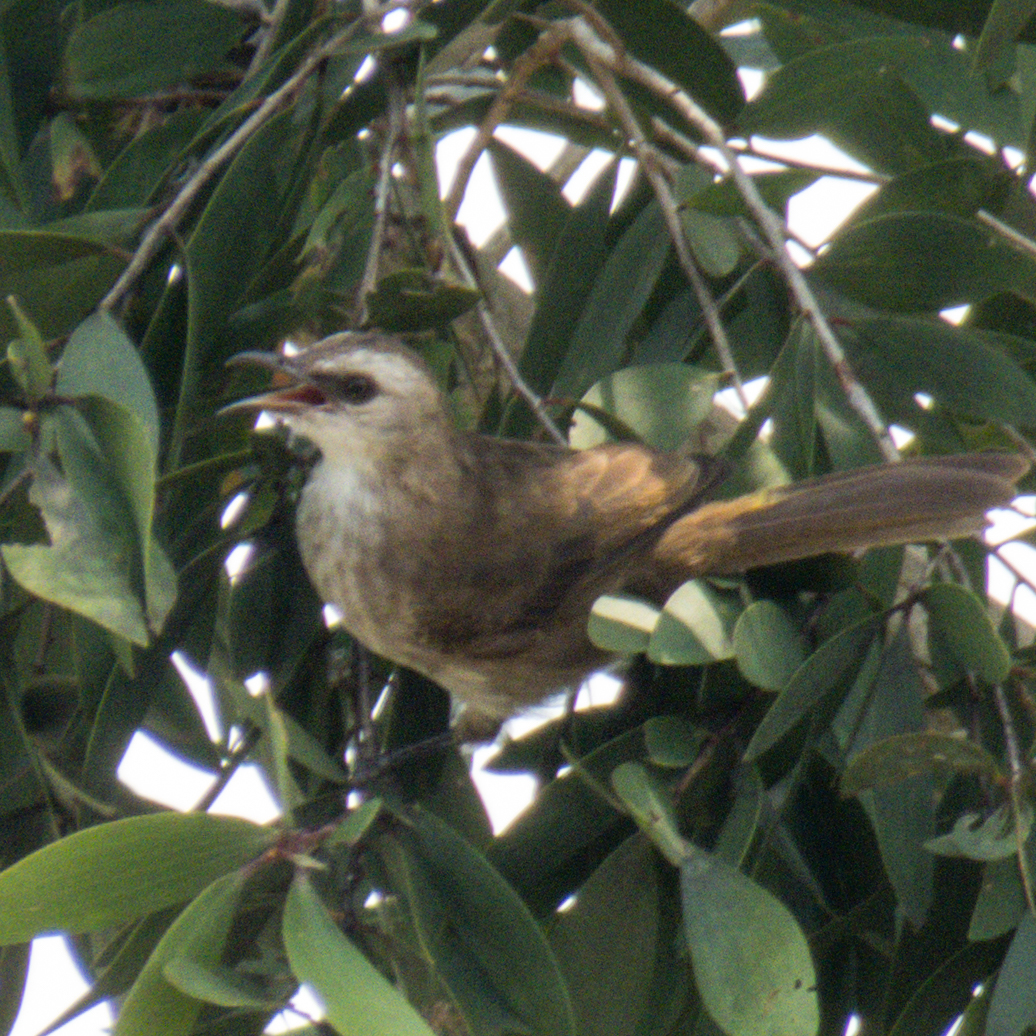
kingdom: Animalia
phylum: Chordata
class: Aves
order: Passeriformes
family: Pycnonotidae
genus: Pycnonotus
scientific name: Pycnonotus goiavier
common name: Yellow-vented bulbul
